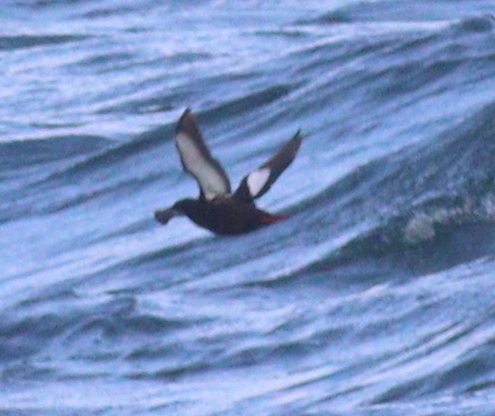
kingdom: Animalia
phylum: Chordata
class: Aves
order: Charadriiformes
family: Alcidae
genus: Cepphus
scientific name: Cepphus grylle
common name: Black guillemot
